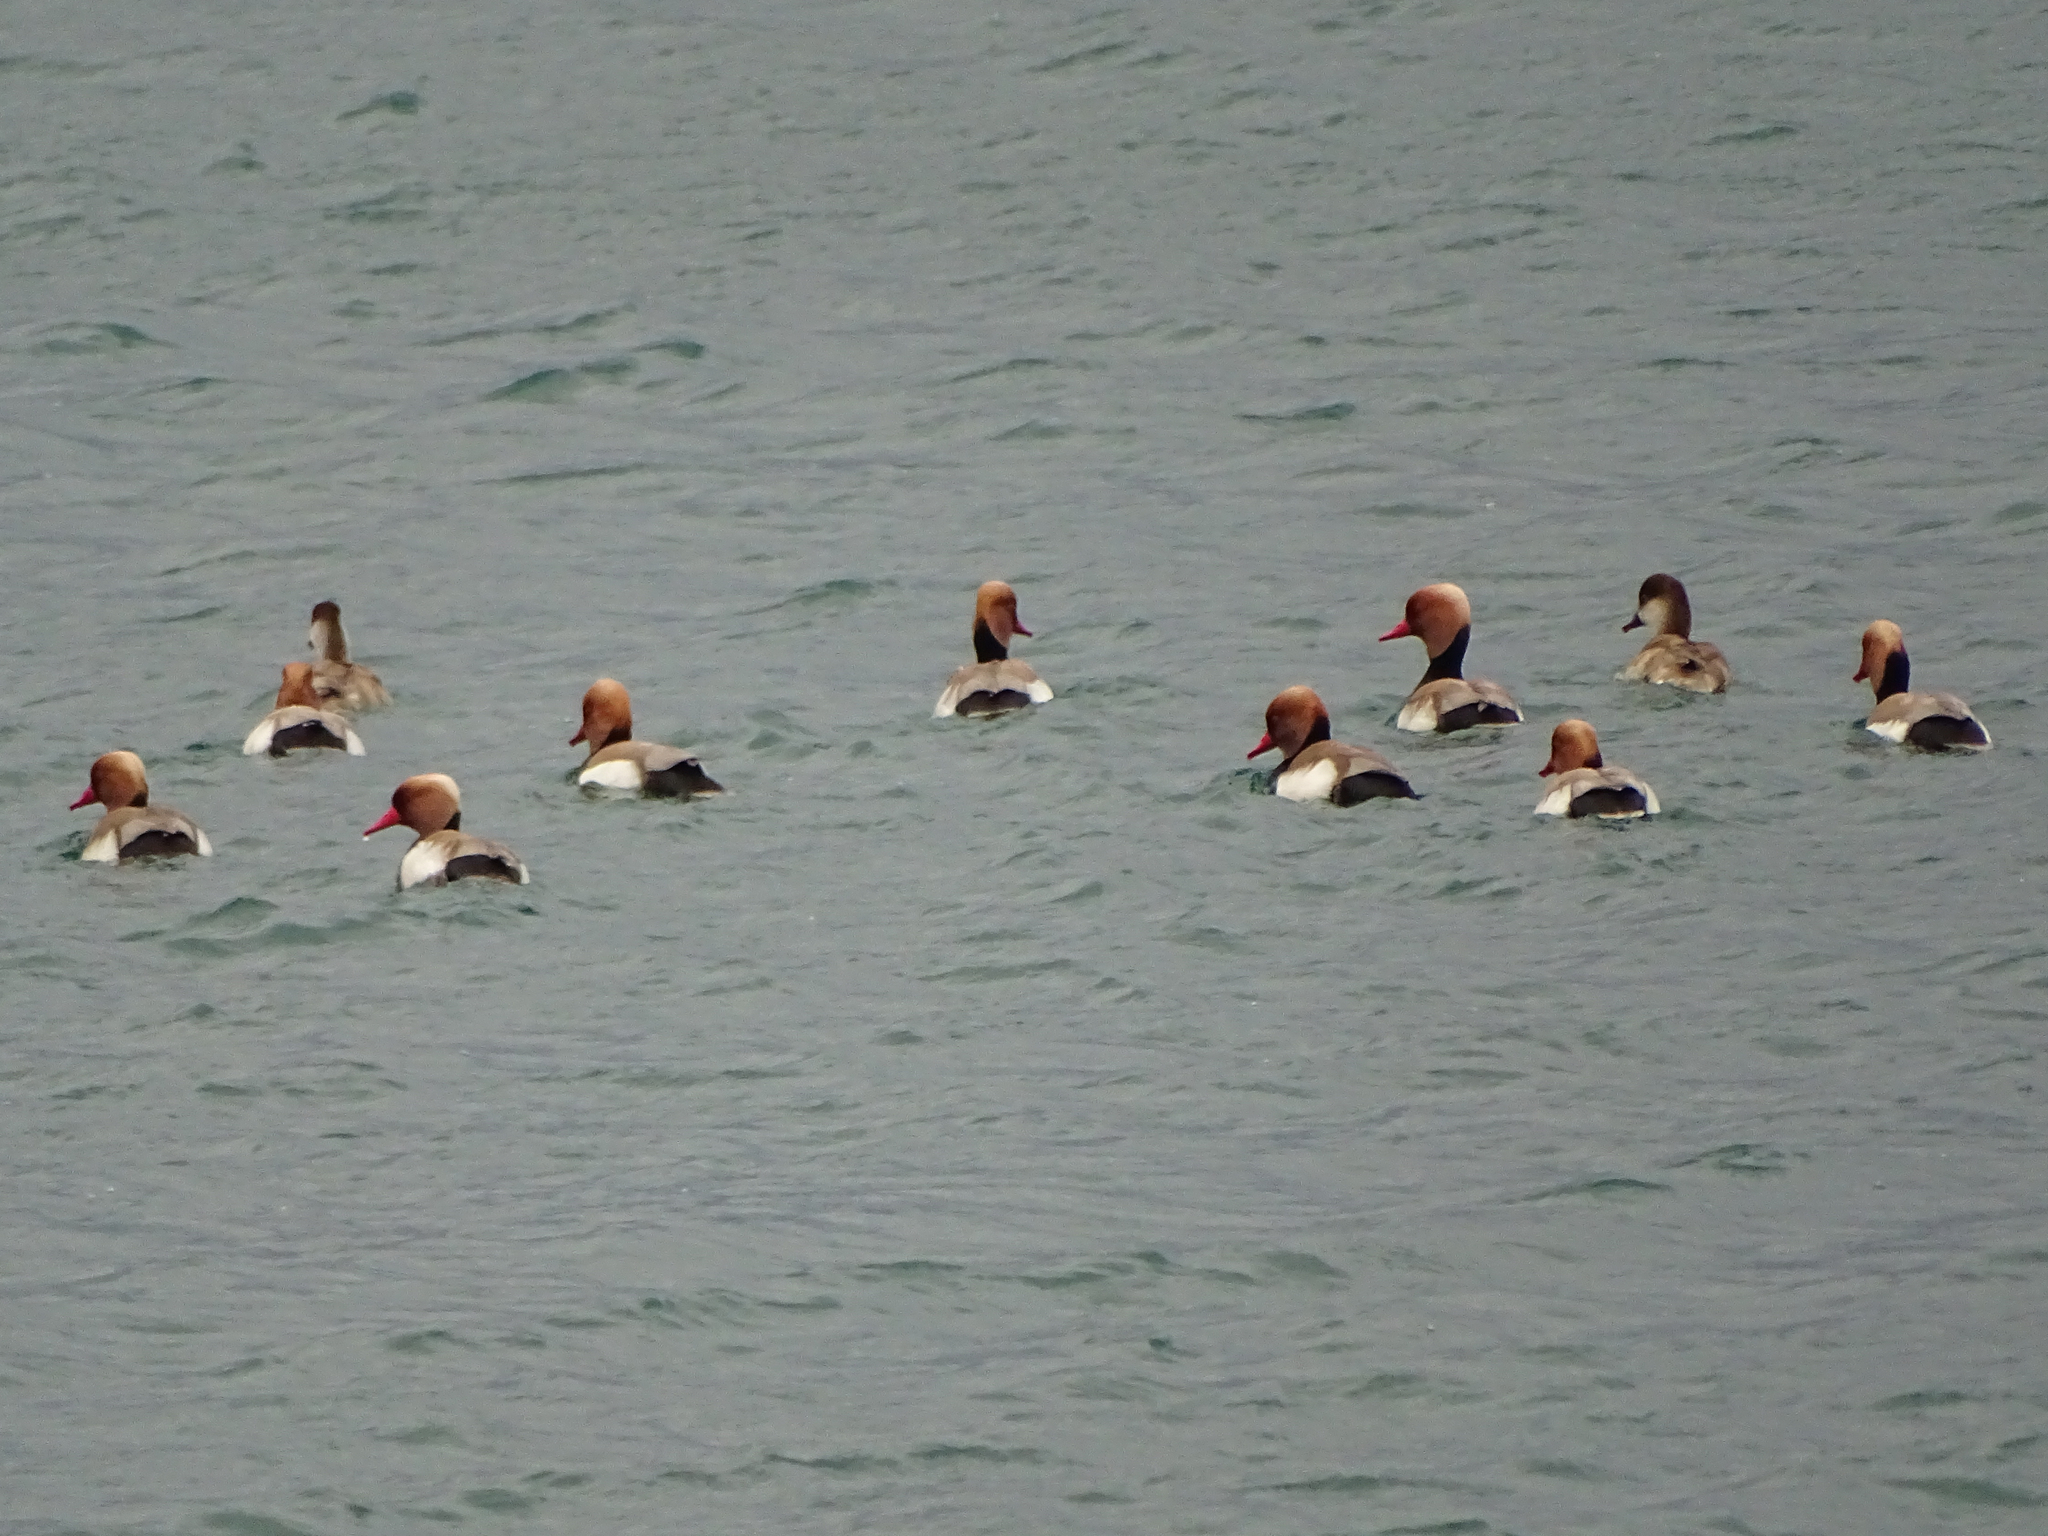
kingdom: Animalia
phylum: Chordata
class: Aves
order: Anseriformes
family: Anatidae
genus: Netta
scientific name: Netta rufina
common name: Red-crested pochard
